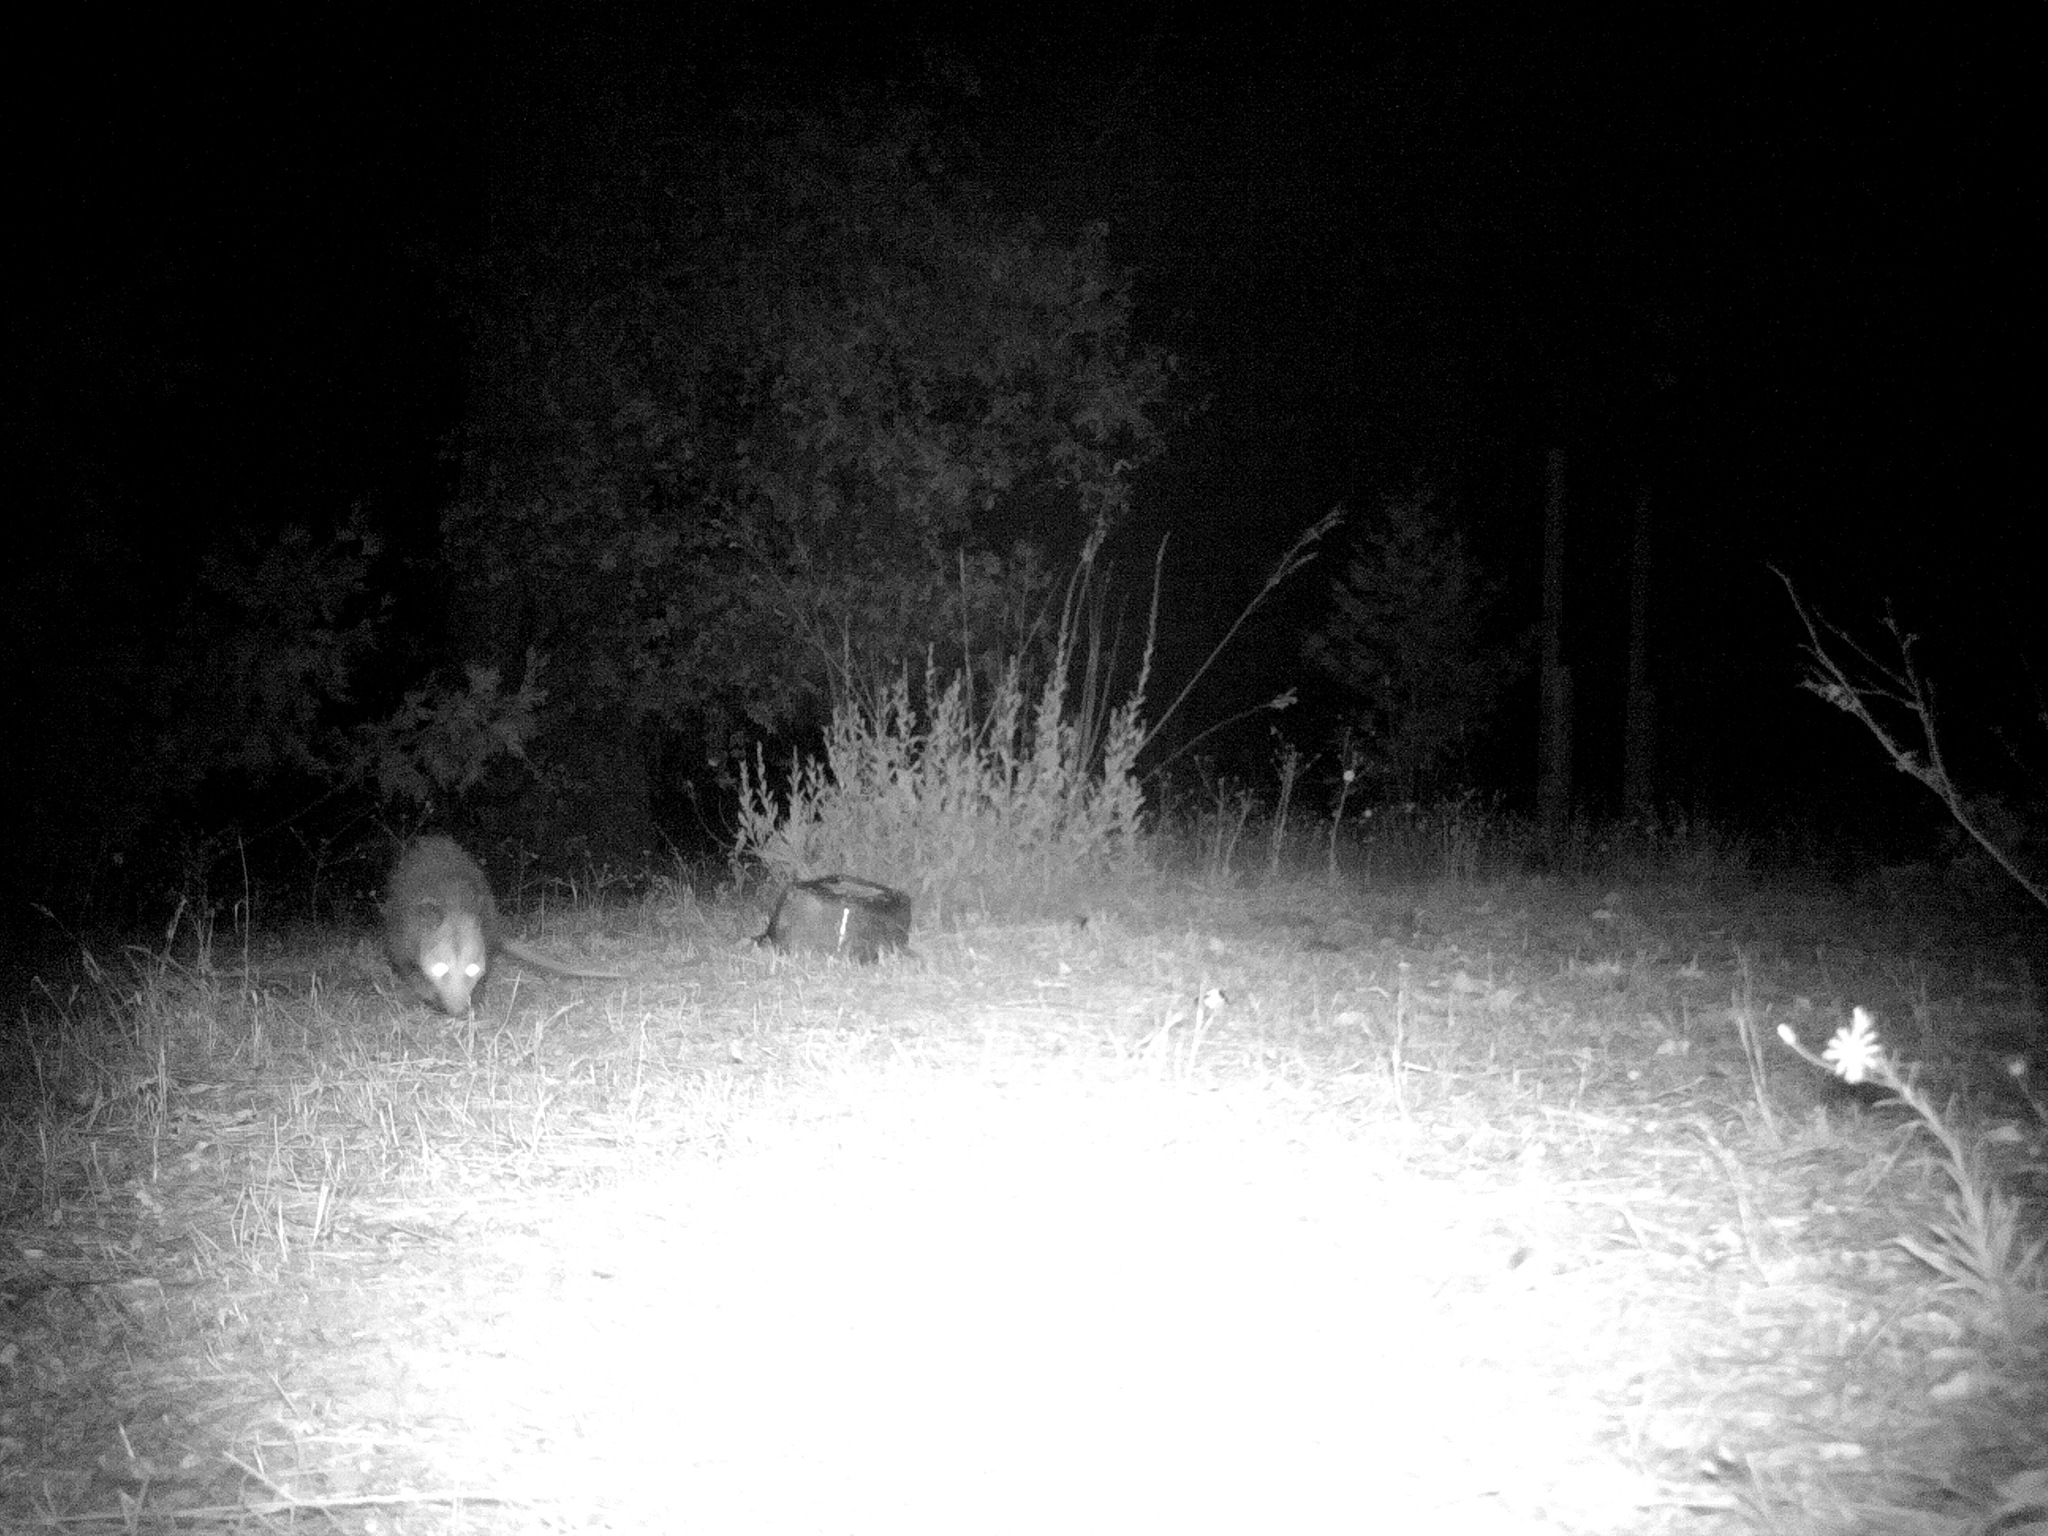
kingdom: Animalia
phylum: Chordata
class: Mammalia
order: Didelphimorphia
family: Didelphidae
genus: Didelphis
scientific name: Didelphis virginiana
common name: Virginia opossum
